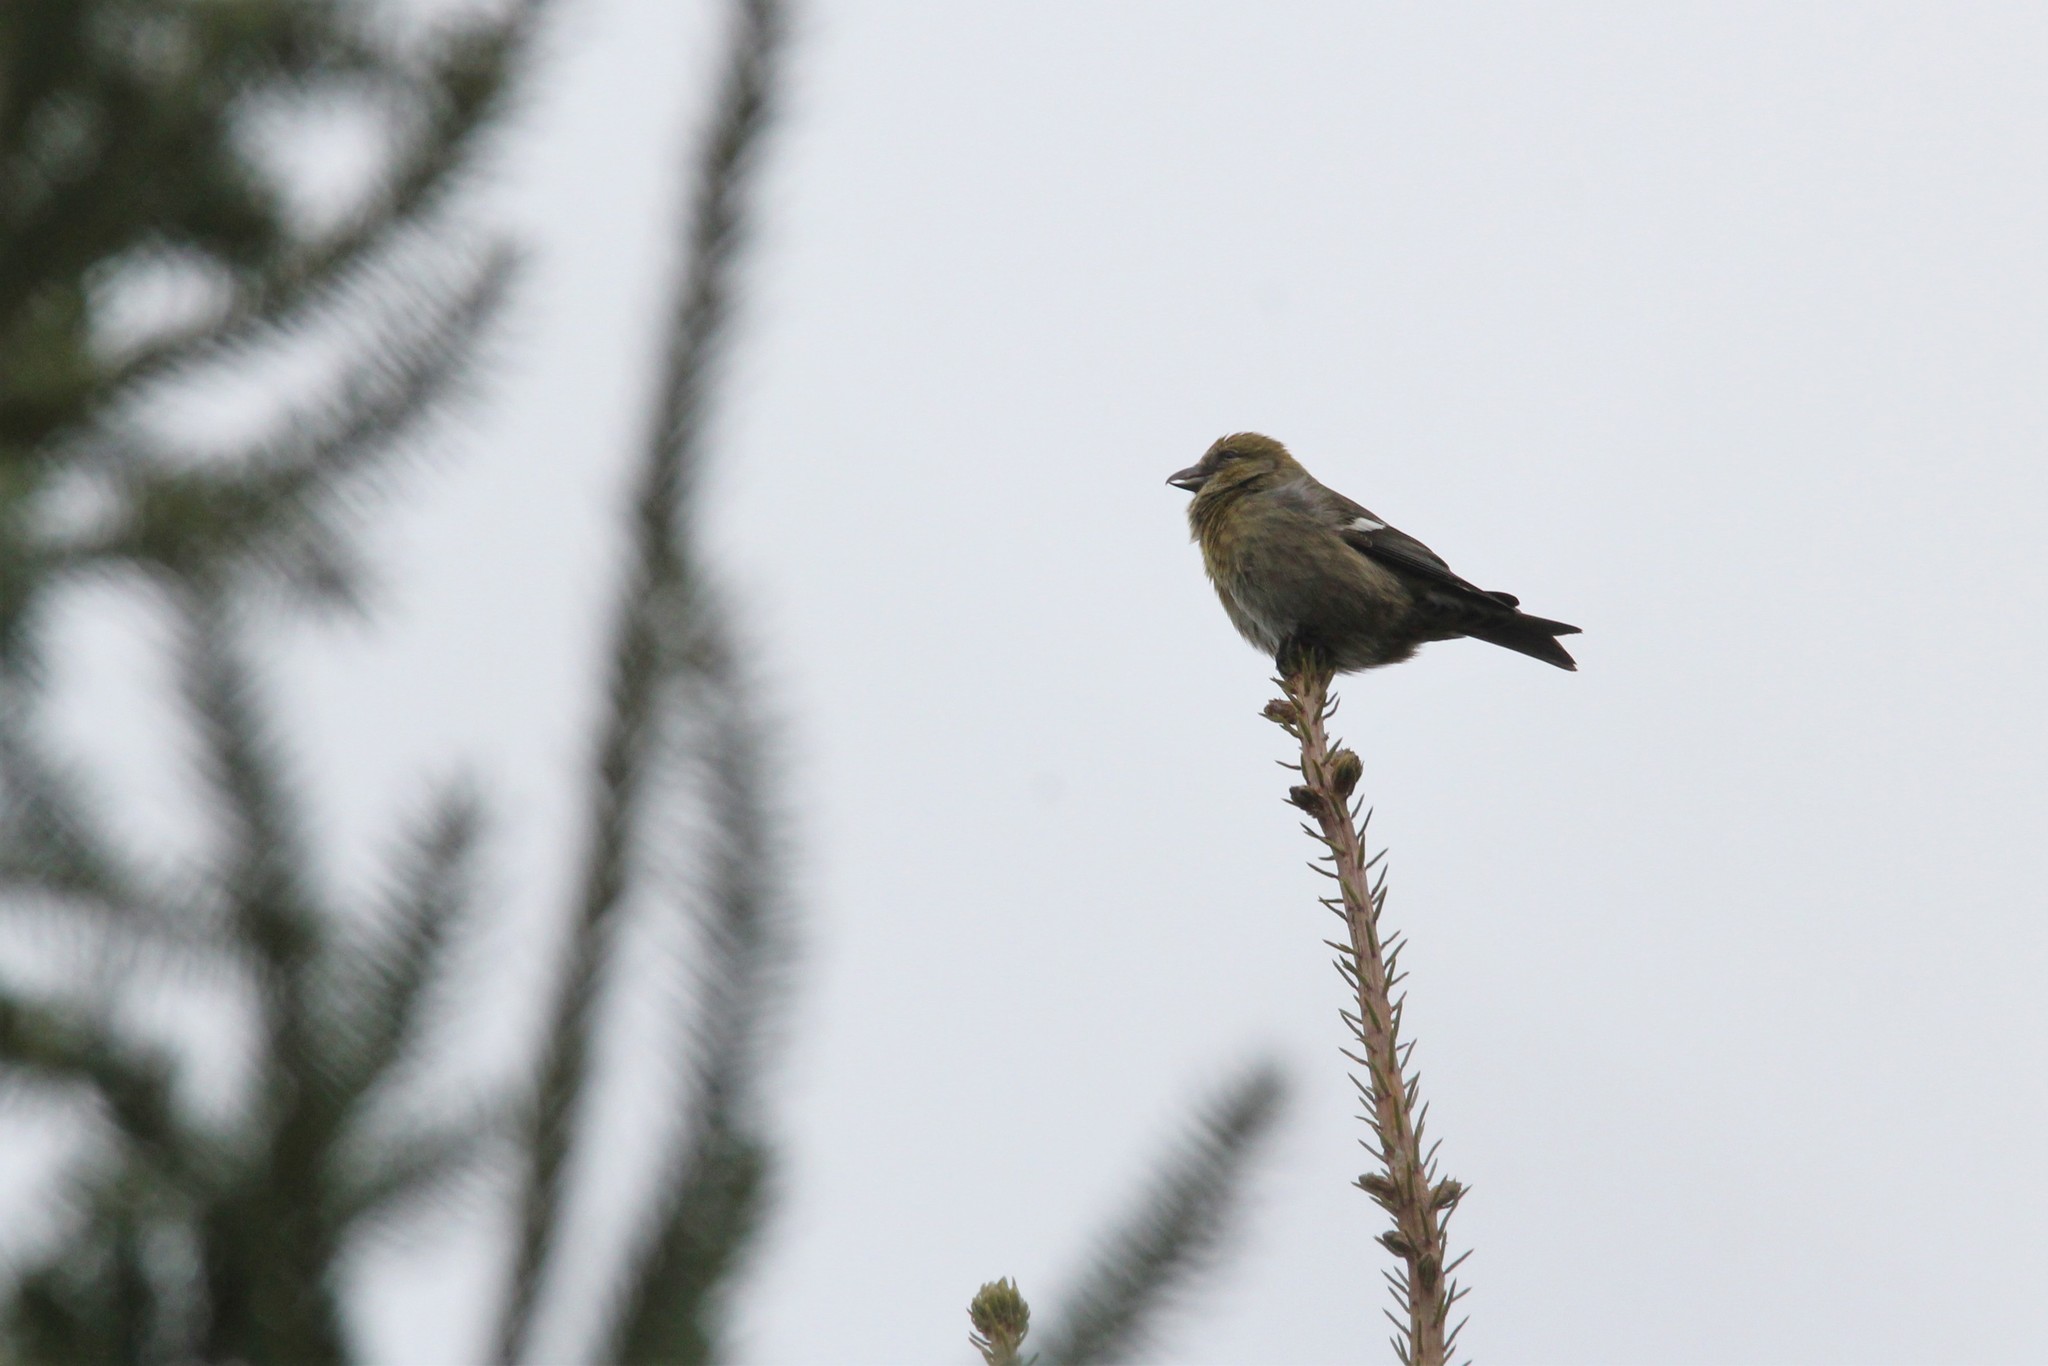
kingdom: Animalia
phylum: Chordata
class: Aves
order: Passeriformes
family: Fringillidae
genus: Loxia
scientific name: Loxia leucoptera
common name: Two-barred crossbill
